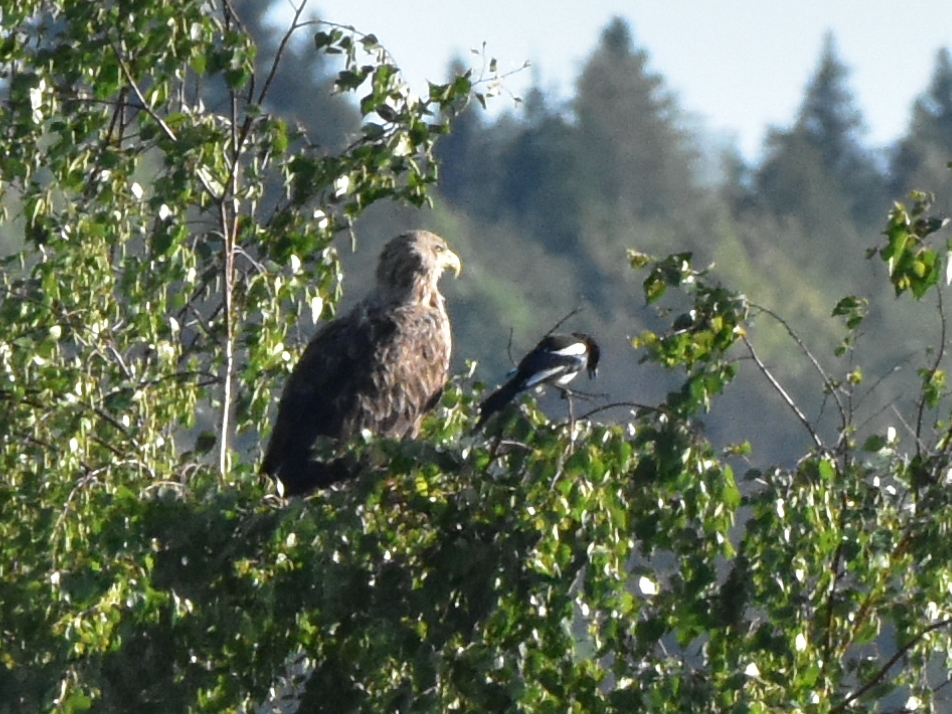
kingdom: Animalia
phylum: Chordata
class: Aves
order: Accipitriformes
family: Accipitridae
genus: Haliaeetus
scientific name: Haliaeetus albicilla
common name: White-tailed eagle
